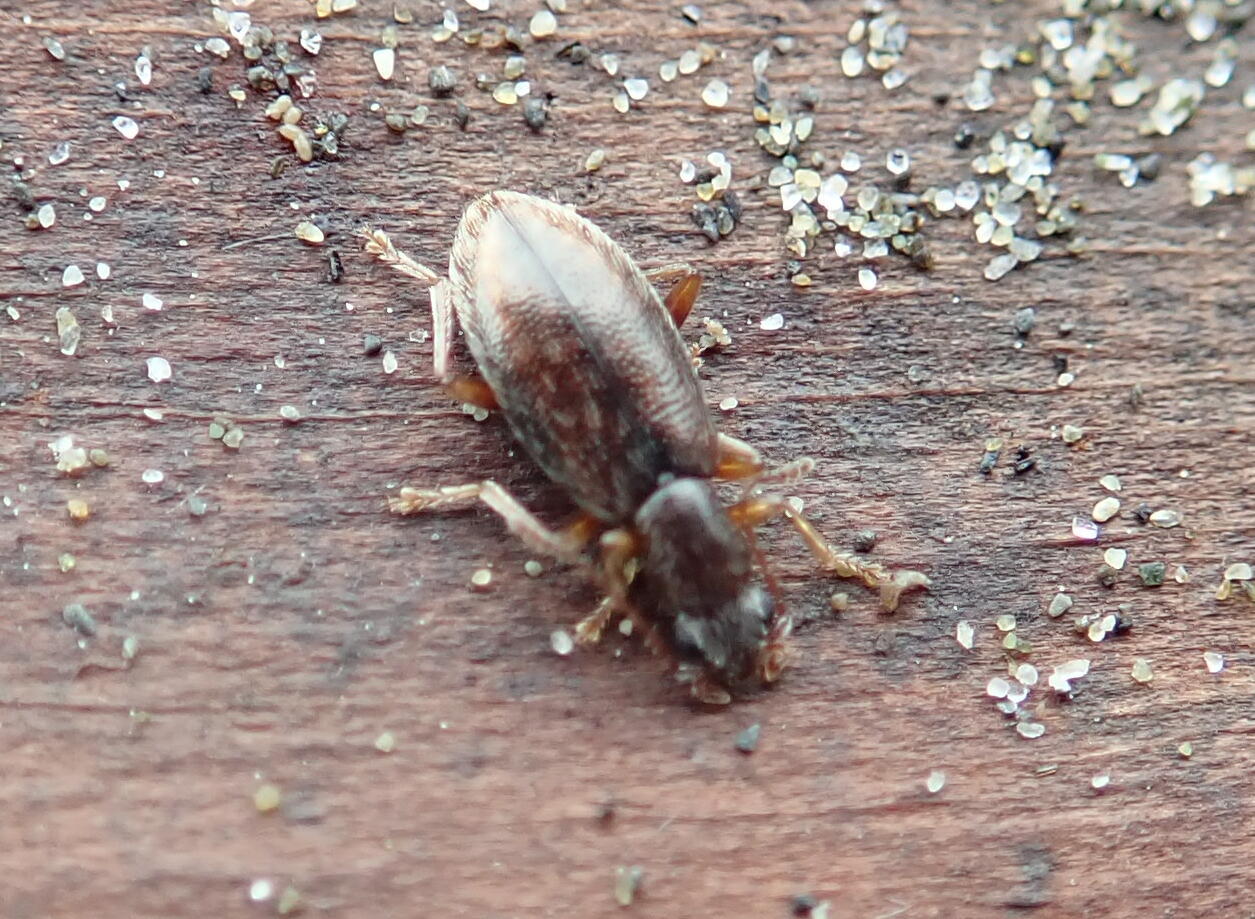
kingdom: Animalia
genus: Lagrioda
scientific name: Lagrioda brounii
